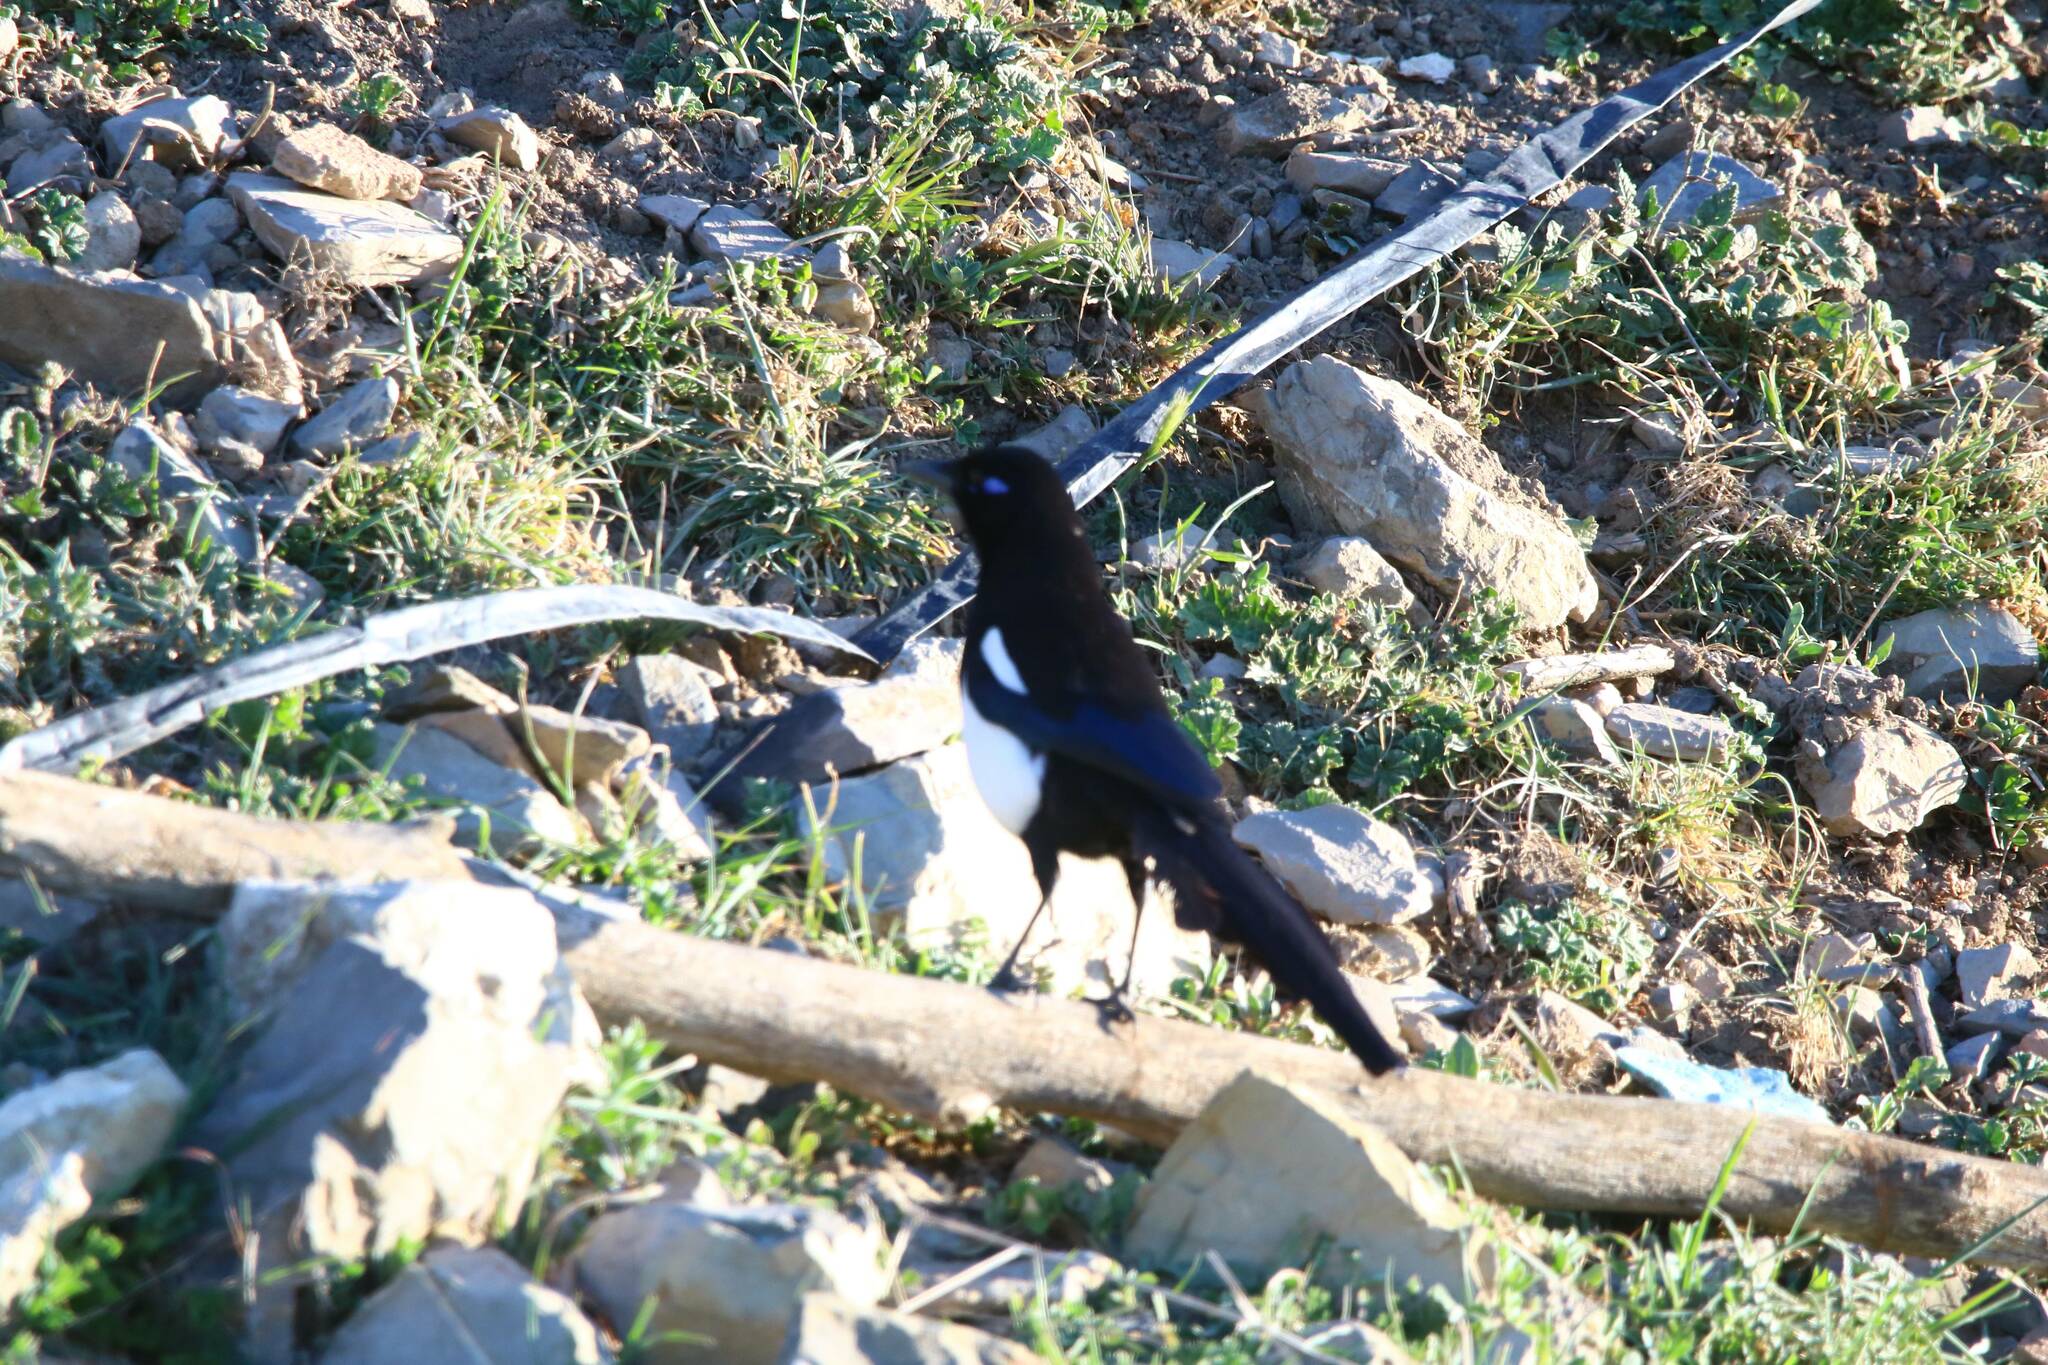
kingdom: Animalia
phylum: Chordata
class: Aves
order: Passeriformes
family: Corvidae
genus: Pica
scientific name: Pica mauritanica
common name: Maghreb magpie
